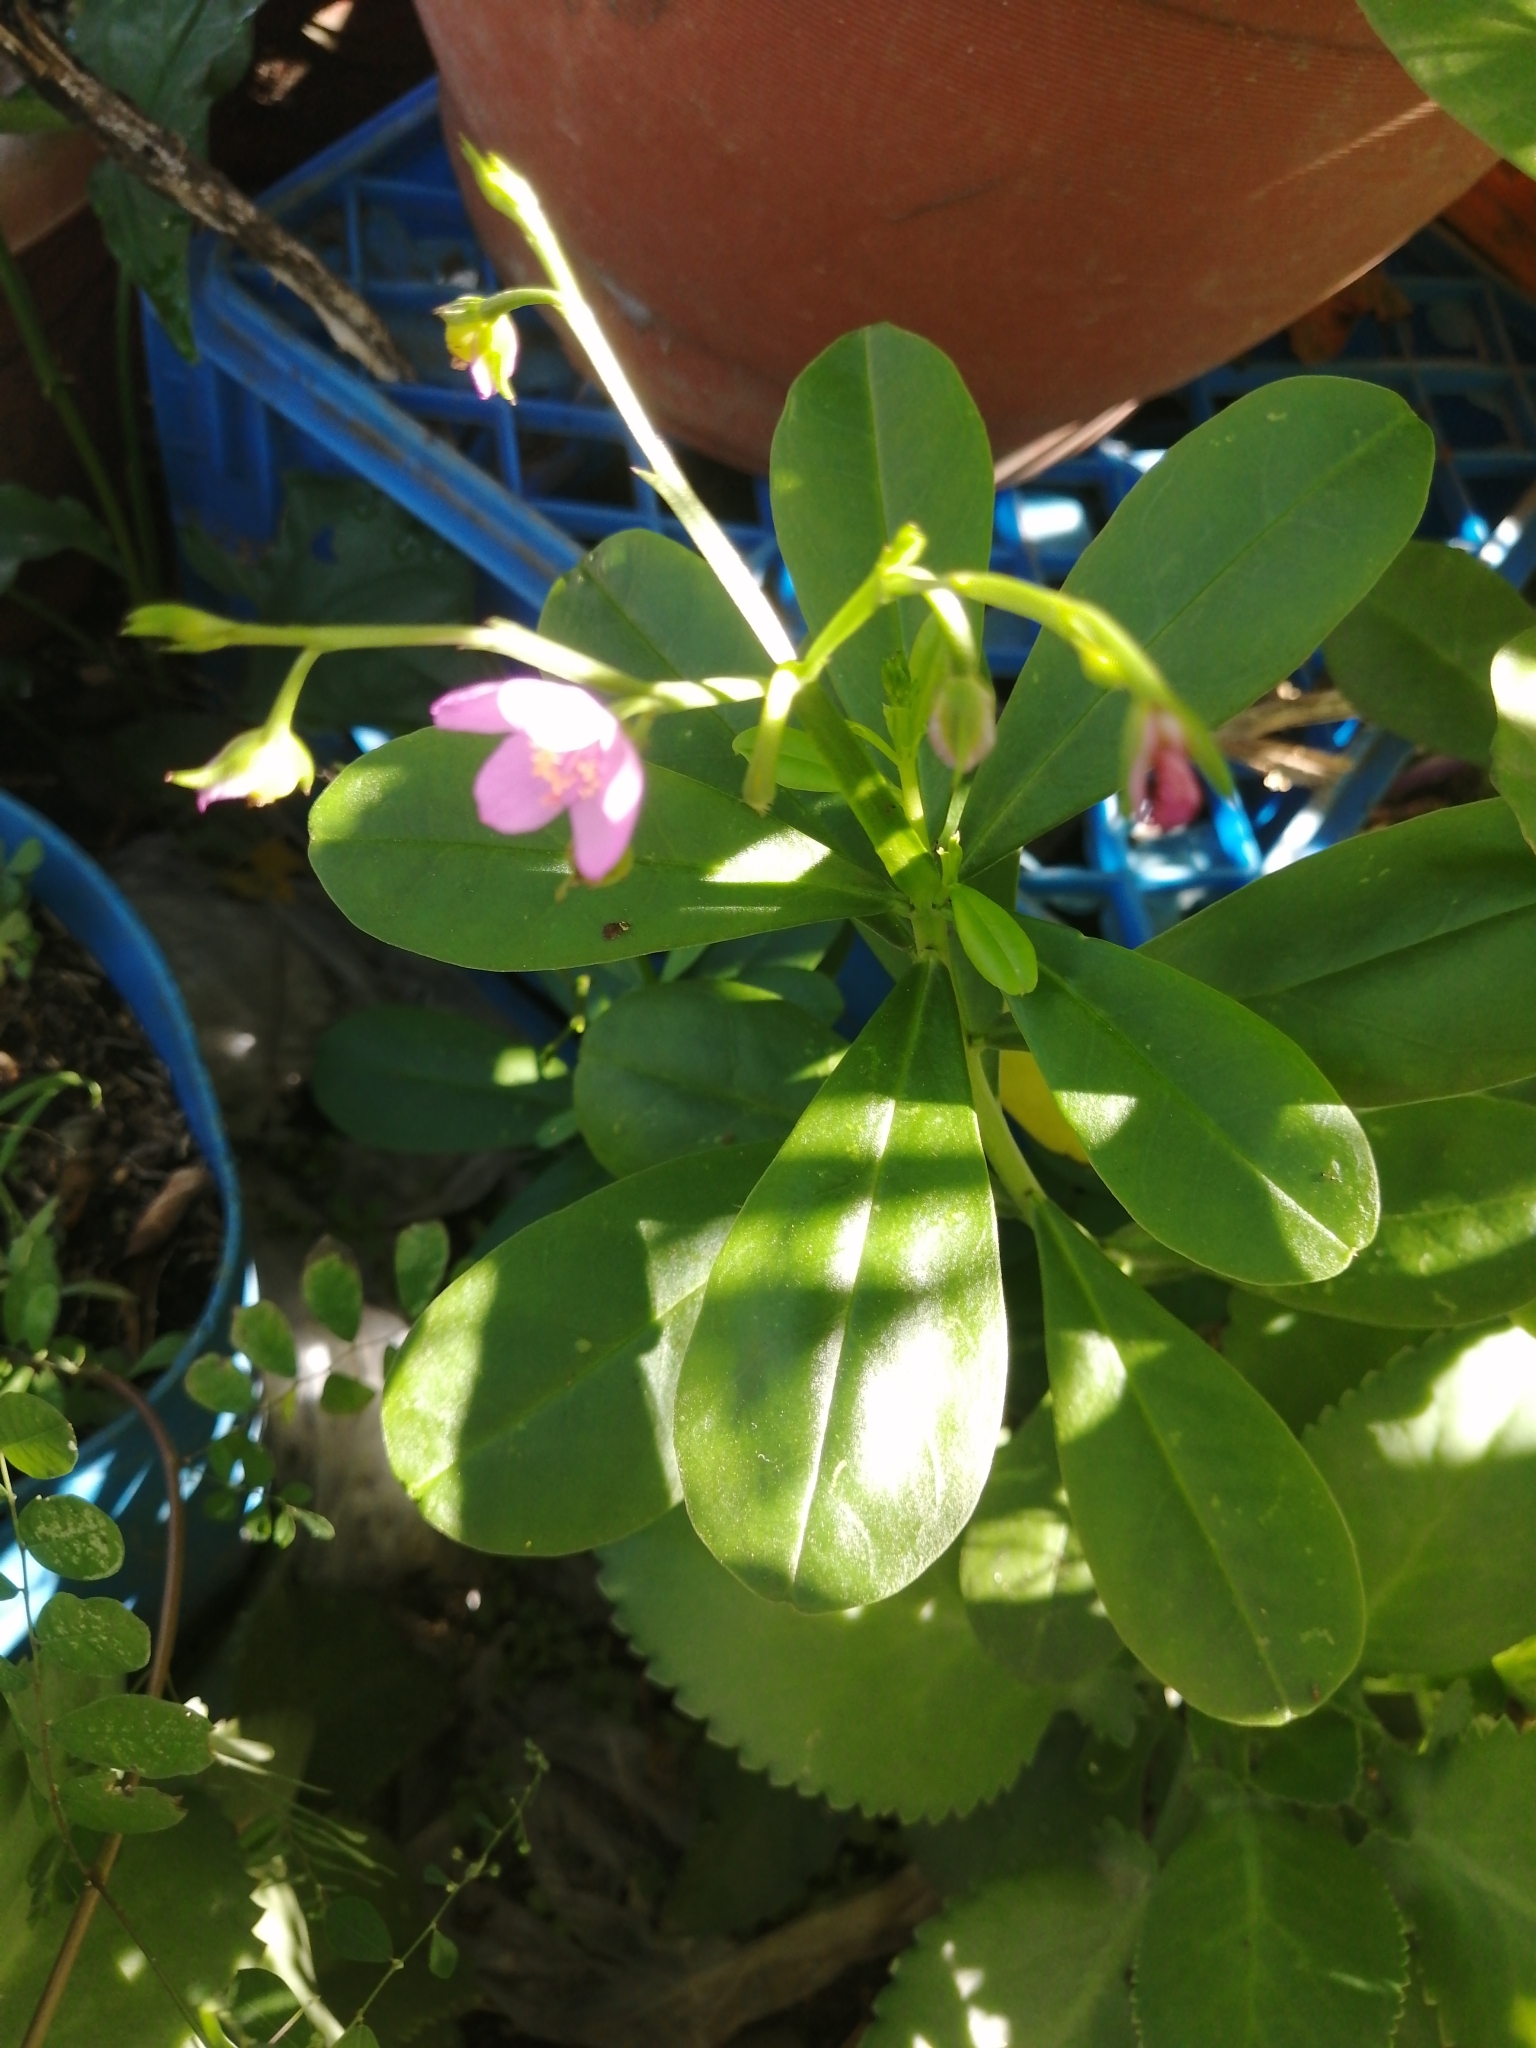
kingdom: Plantae
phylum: Tracheophyta
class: Magnoliopsida
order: Caryophyllales
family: Talinaceae
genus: Talinum
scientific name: Talinum fruticosum
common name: Verdolaga-francesa
